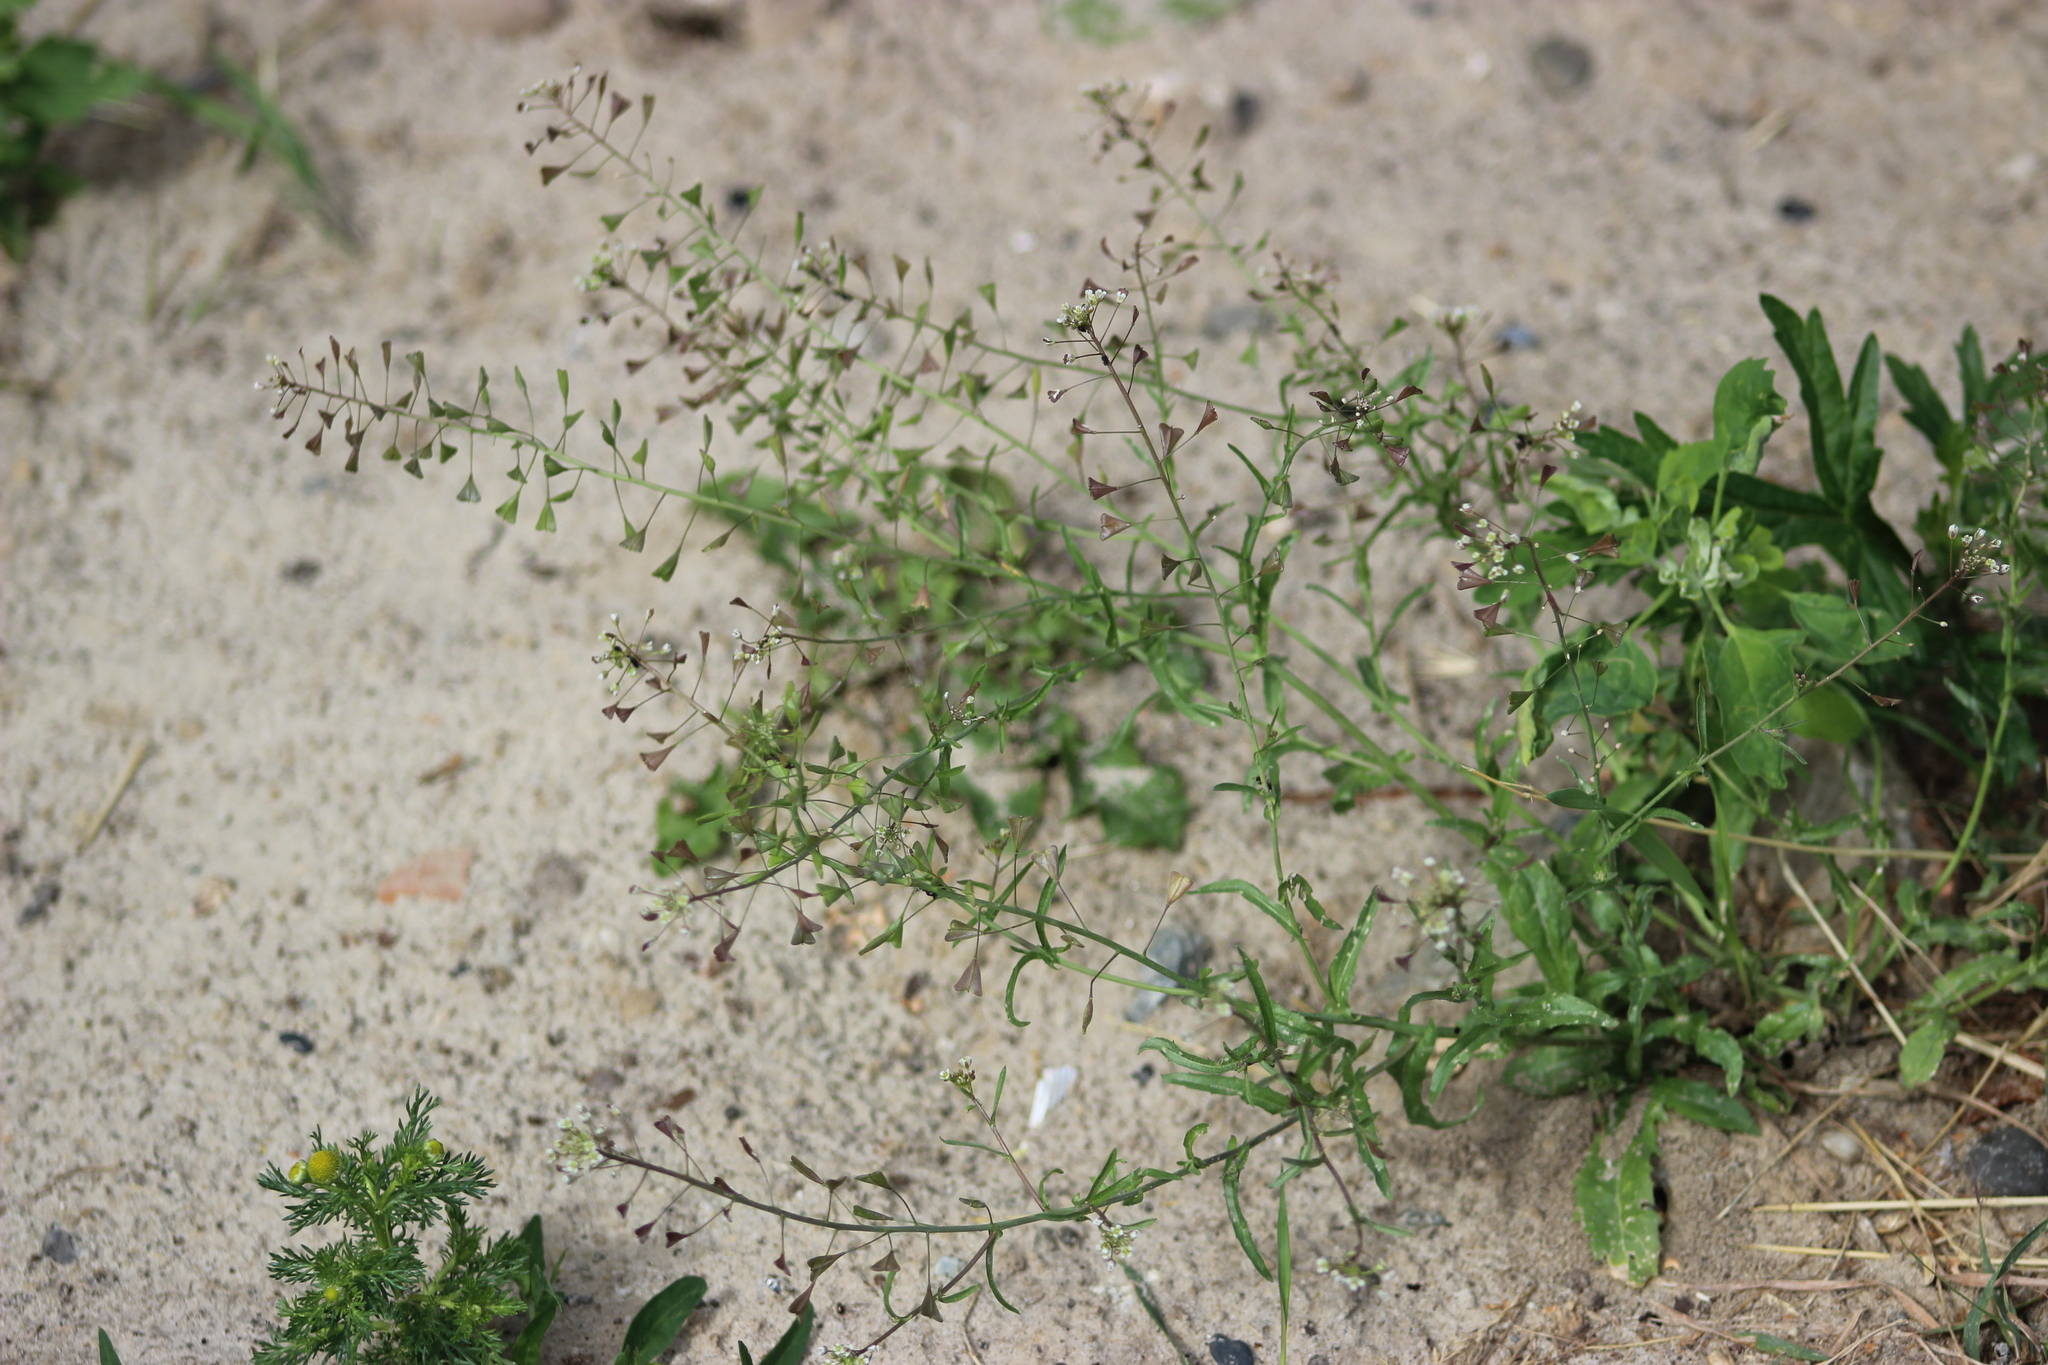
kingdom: Plantae
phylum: Tracheophyta
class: Magnoliopsida
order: Brassicales
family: Brassicaceae
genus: Capsella
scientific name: Capsella bursa-pastoris
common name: Shepherd's purse
